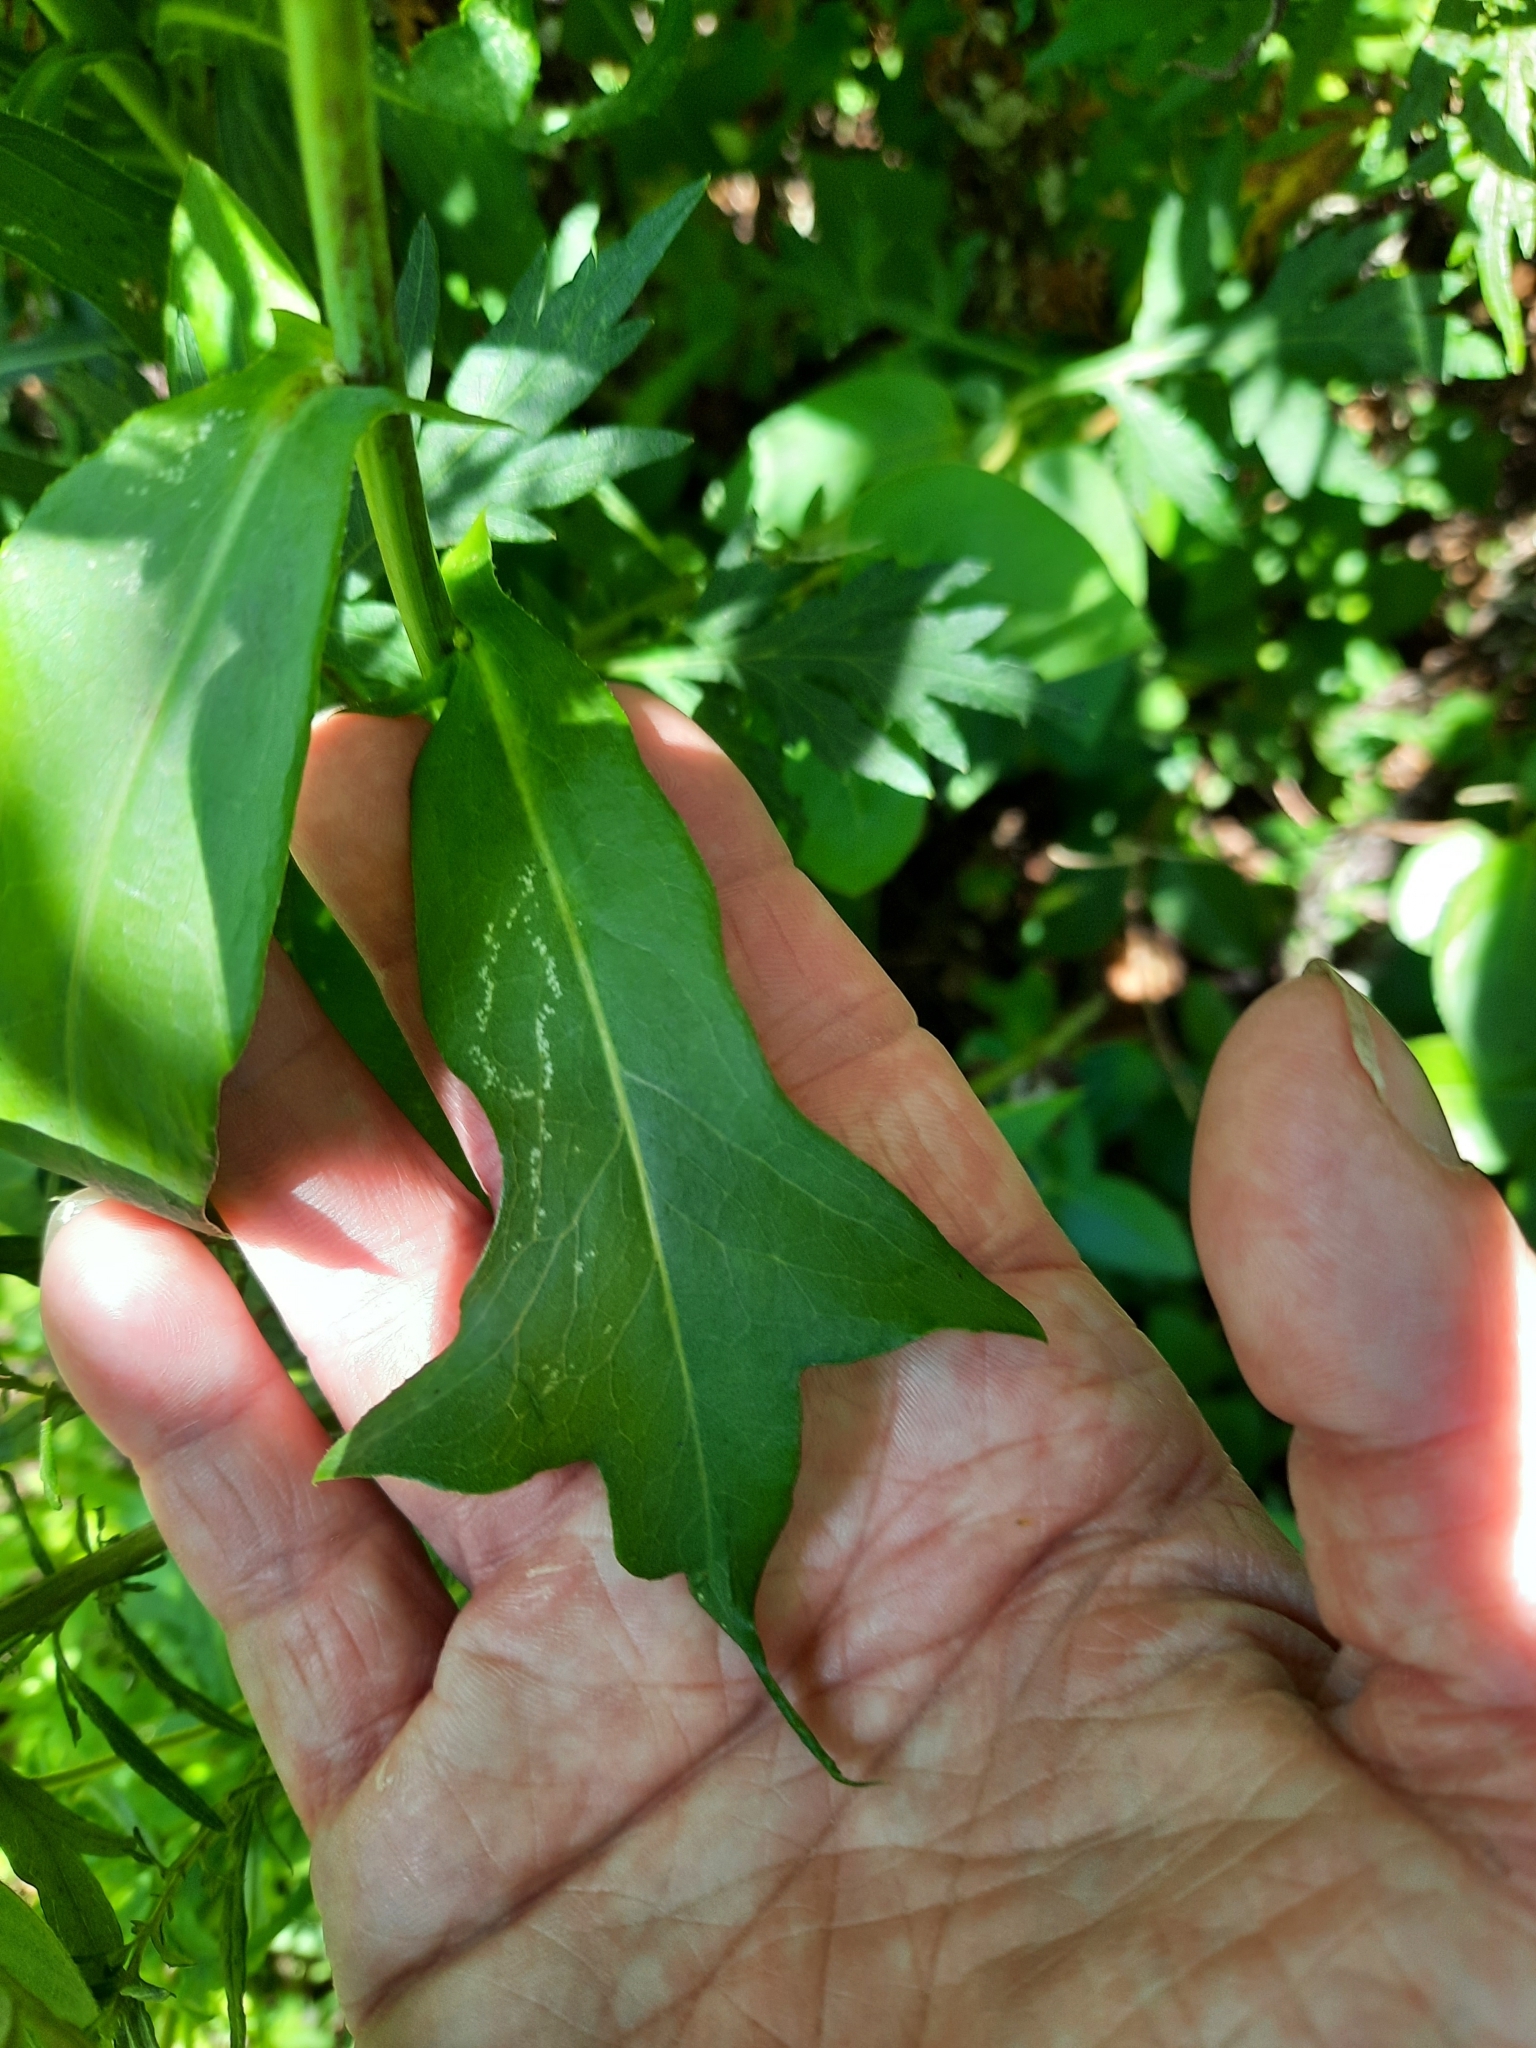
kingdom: Plantae
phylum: Tracheophyta
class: Magnoliopsida
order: Asterales
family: Asteraceae
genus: Lactuca
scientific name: Lactuca canadensis
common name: Canada lettuce
